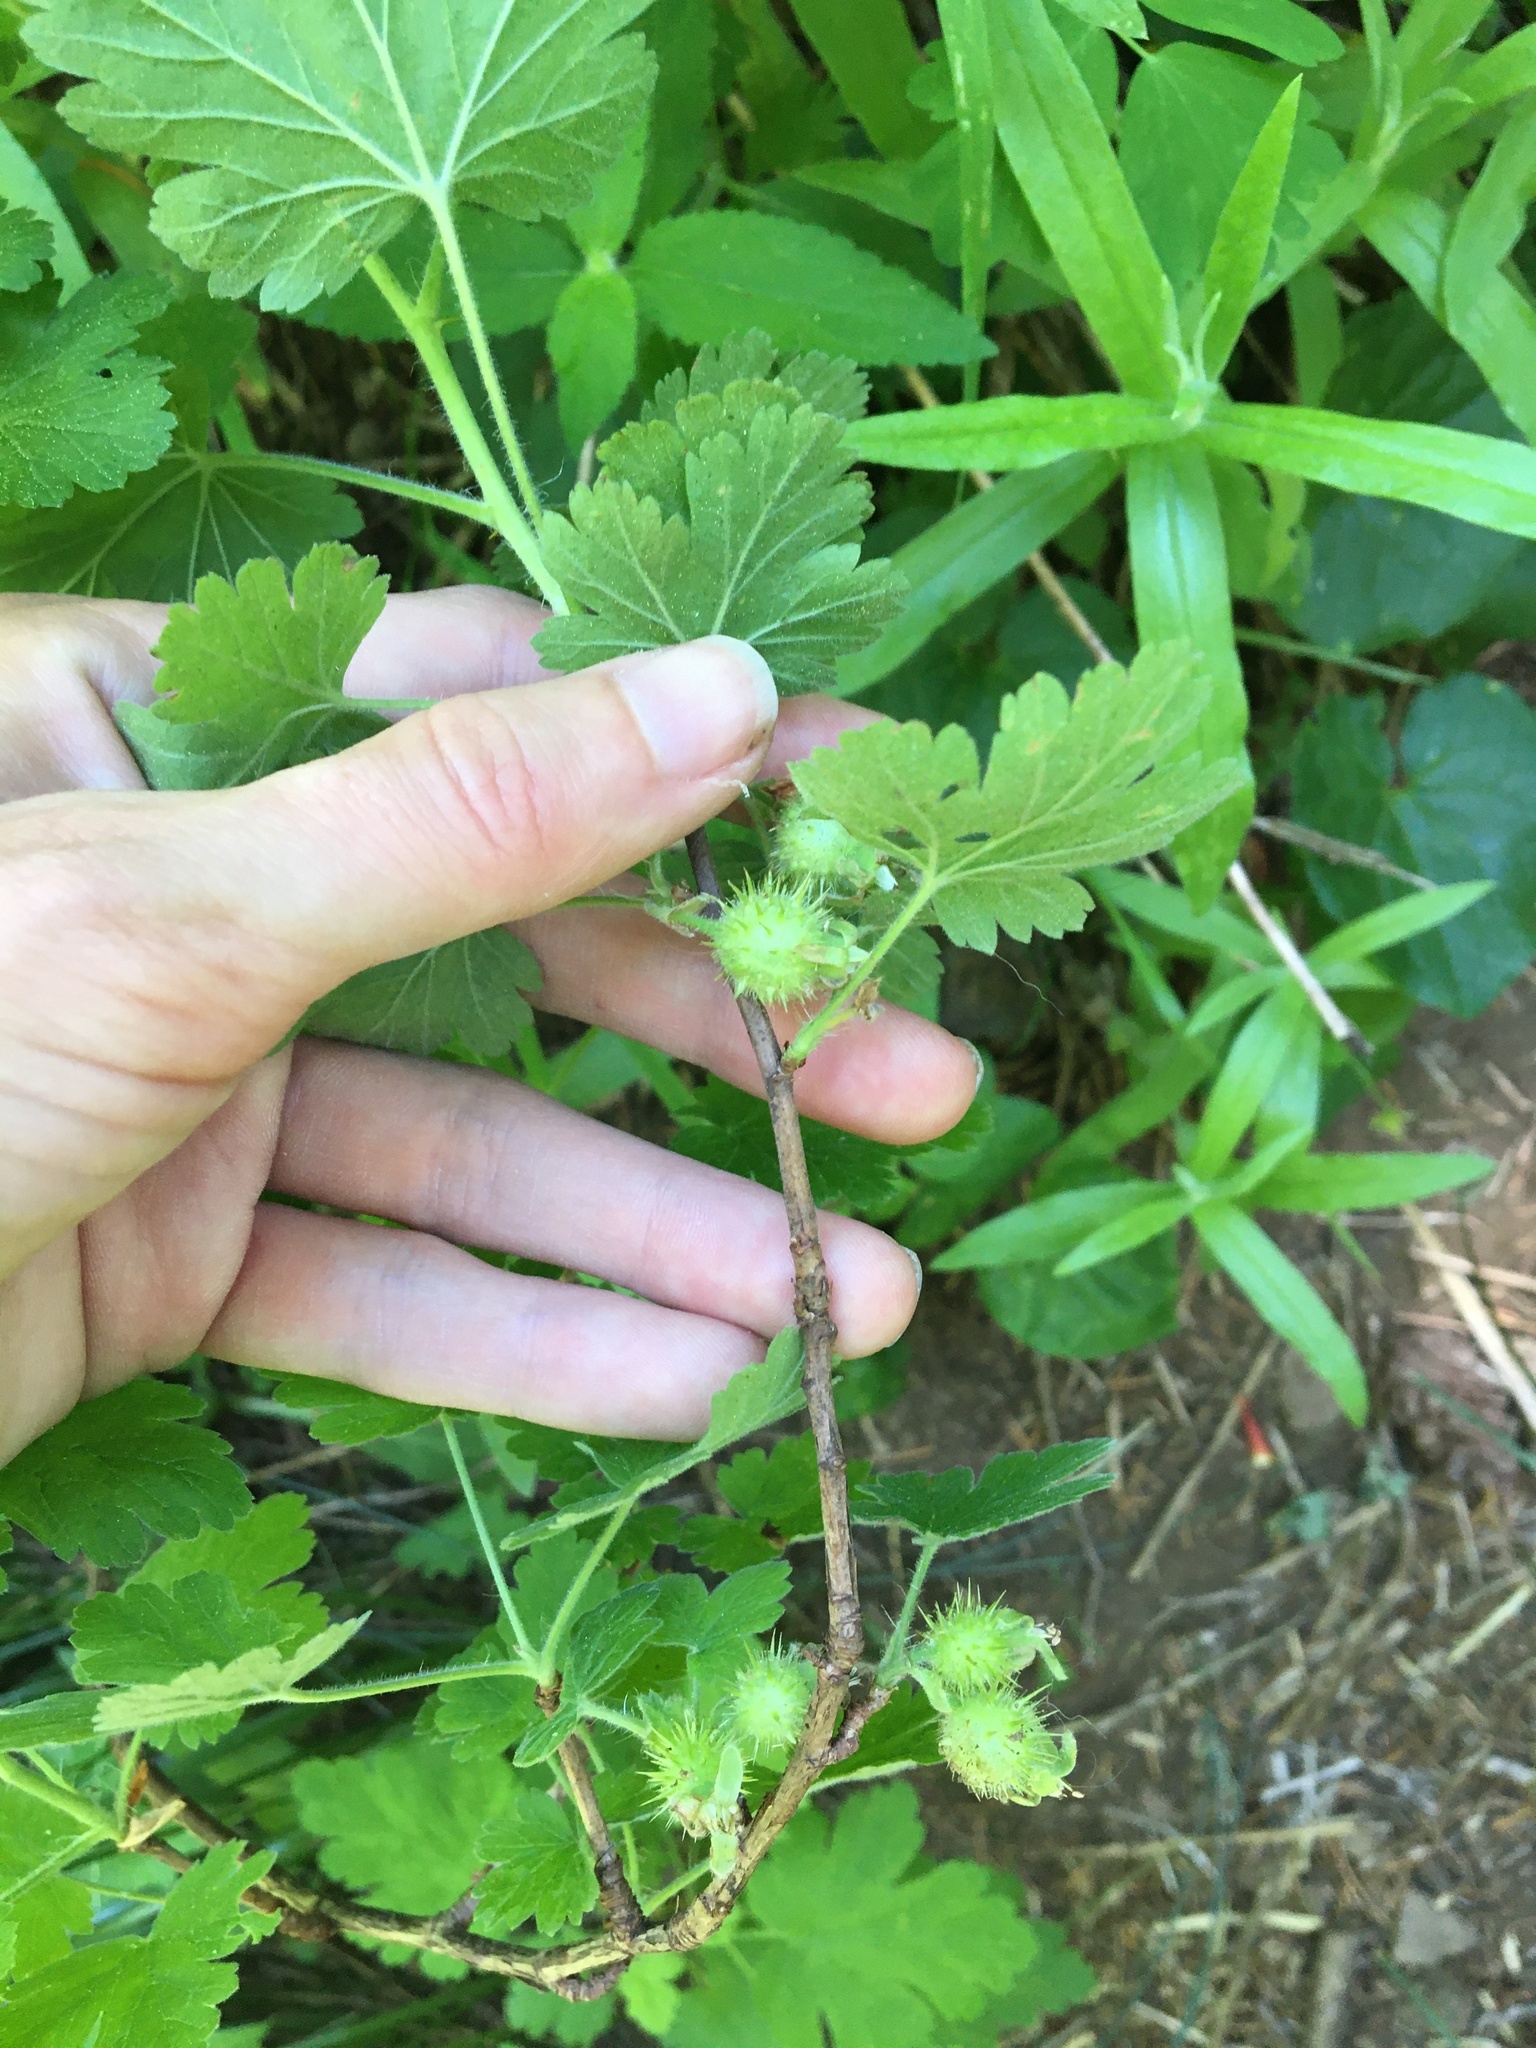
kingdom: Plantae
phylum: Tracheophyta
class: Magnoliopsida
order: Saxifragales
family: Grossulariaceae
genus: Ribes
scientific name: Ribes binominatum
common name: Trailing gooseberry
